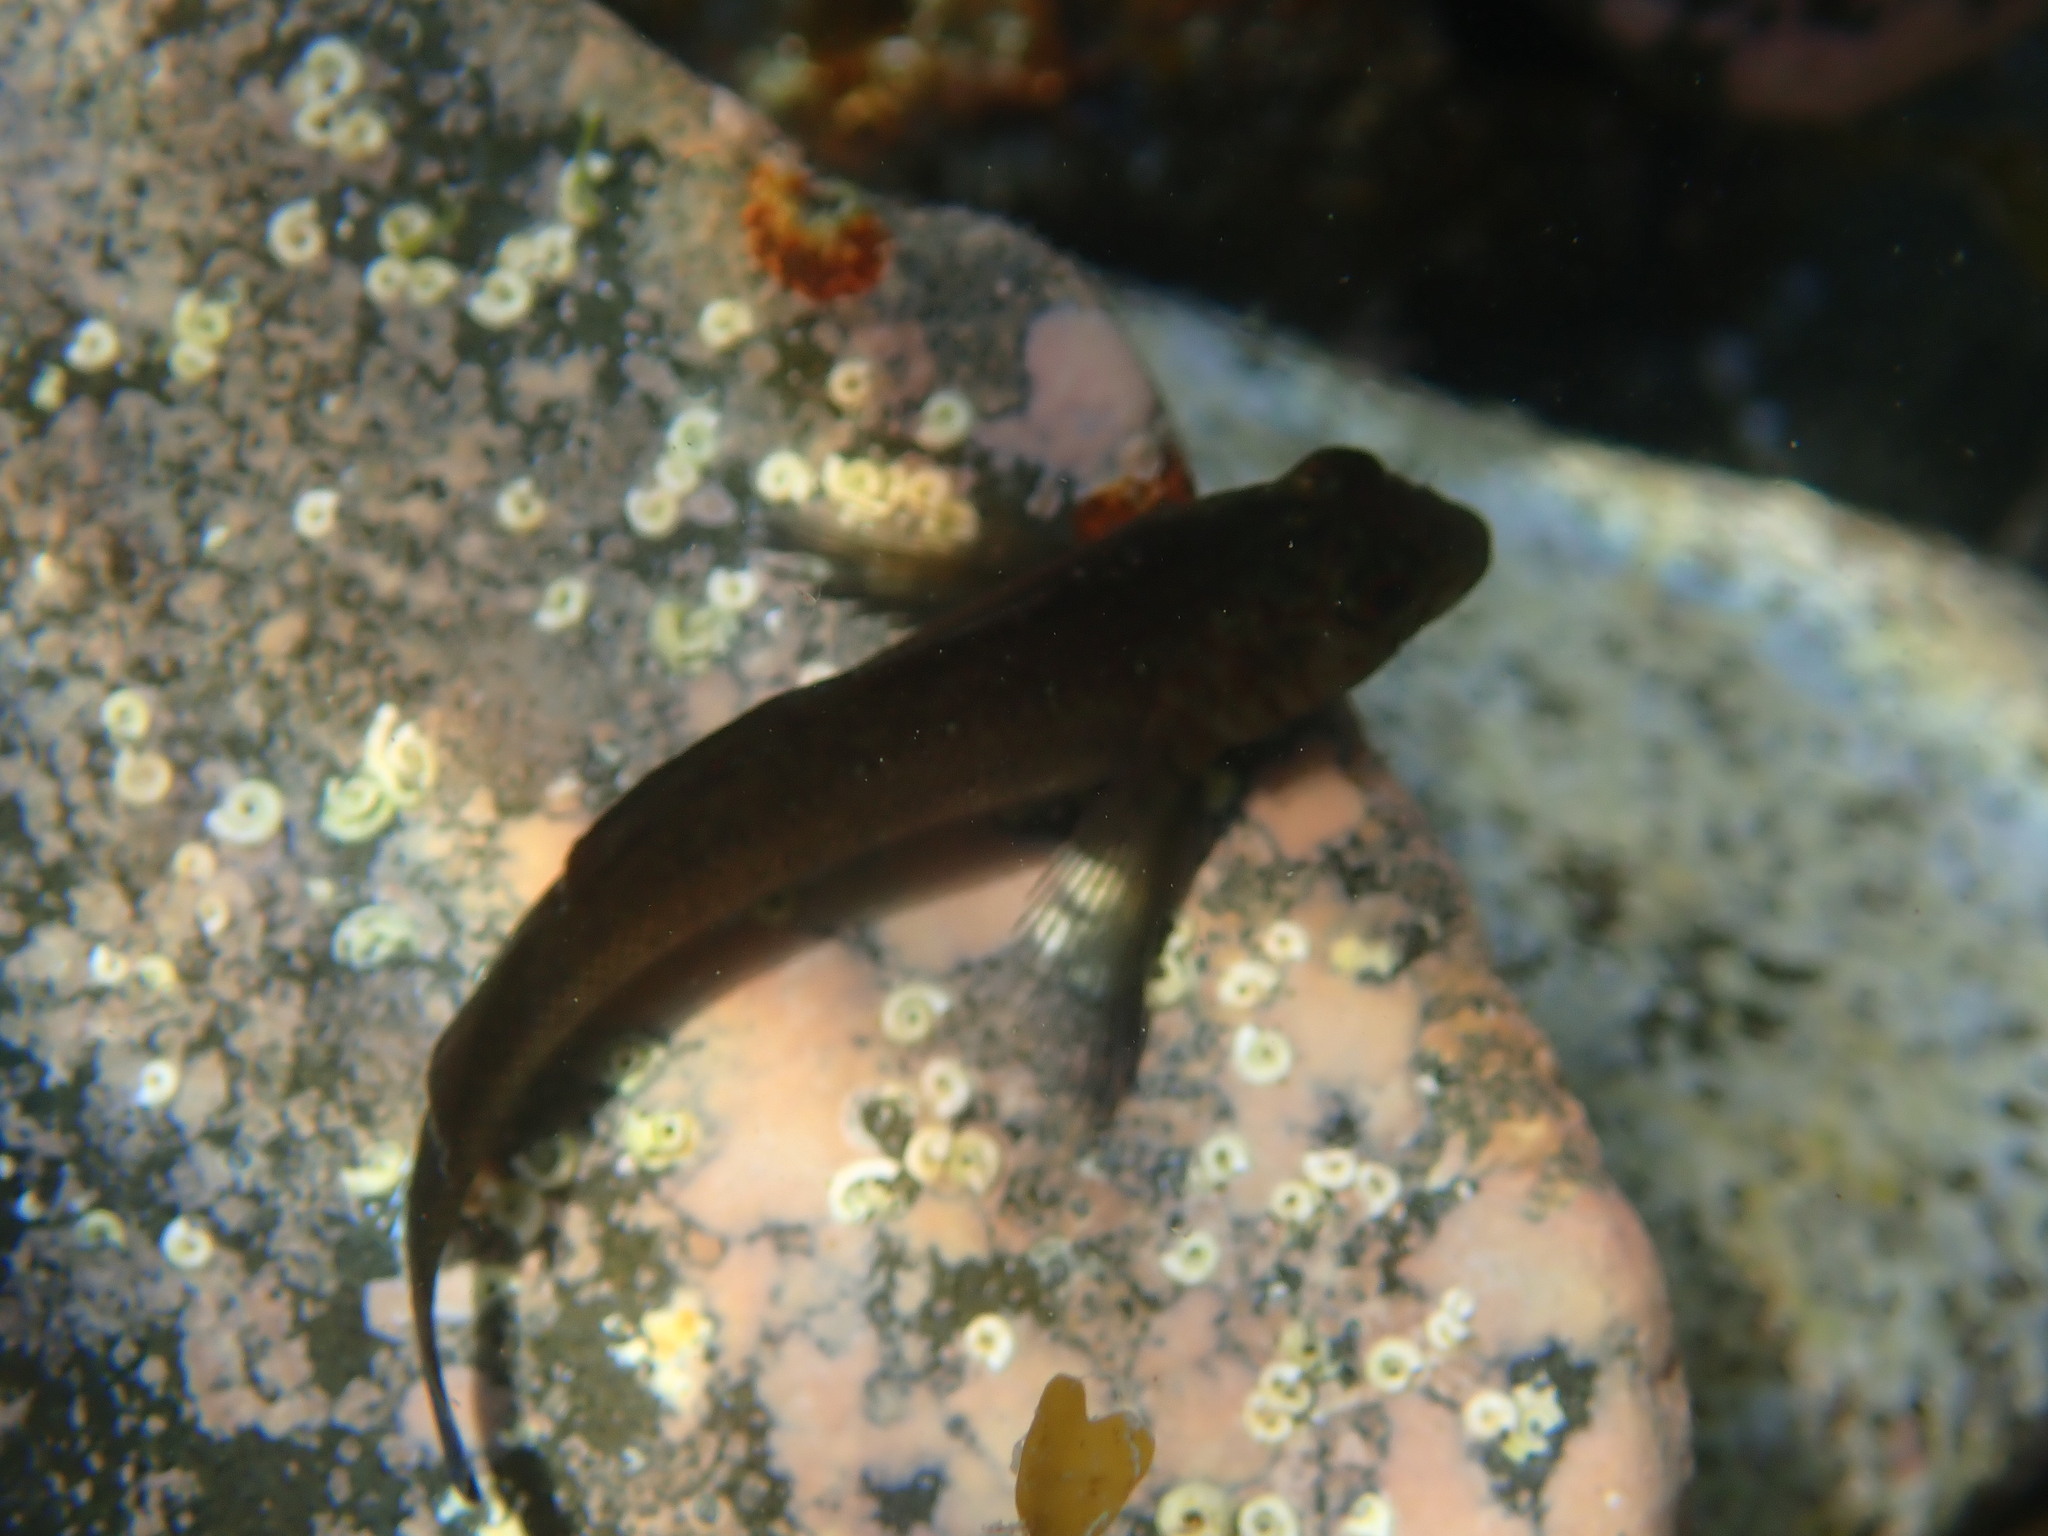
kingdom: Animalia
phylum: Chordata
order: Perciformes
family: Tripterygiidae
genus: Forsterygion
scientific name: Forsterygion lapillum
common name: Common triplefin
